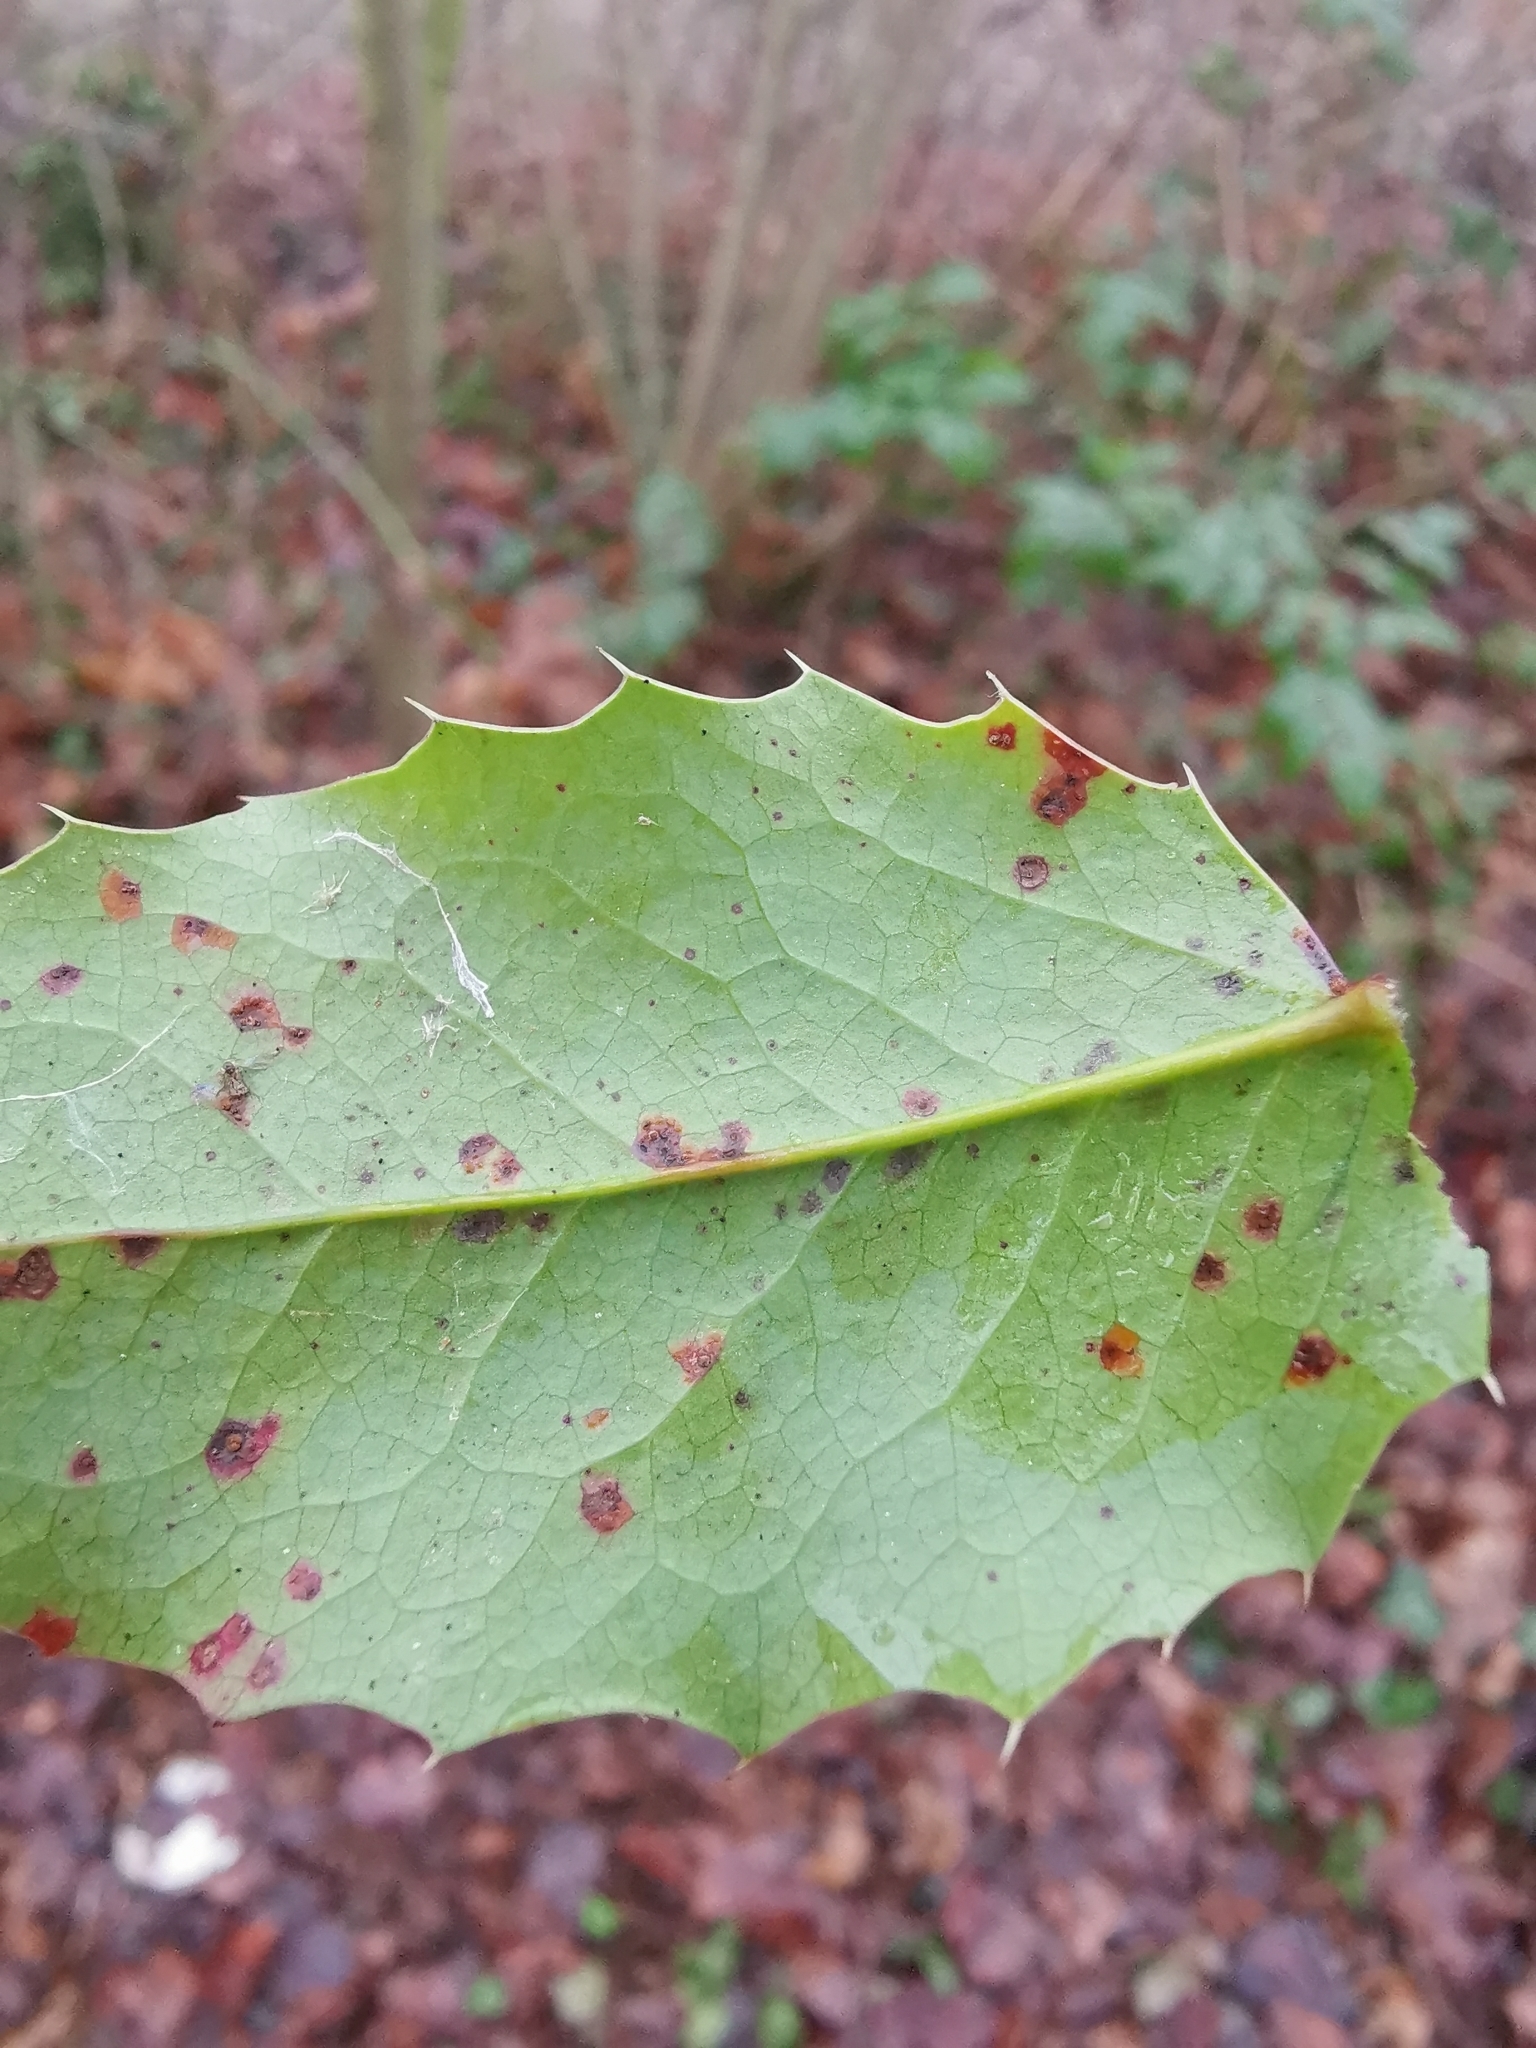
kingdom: Fungi
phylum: Basidiomycota
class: Pucciniomycetes
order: Pucciniales
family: Pucciniaceae
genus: Cumminsiella
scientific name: Cumminsiella mirabilissima
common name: Mahonia rust
